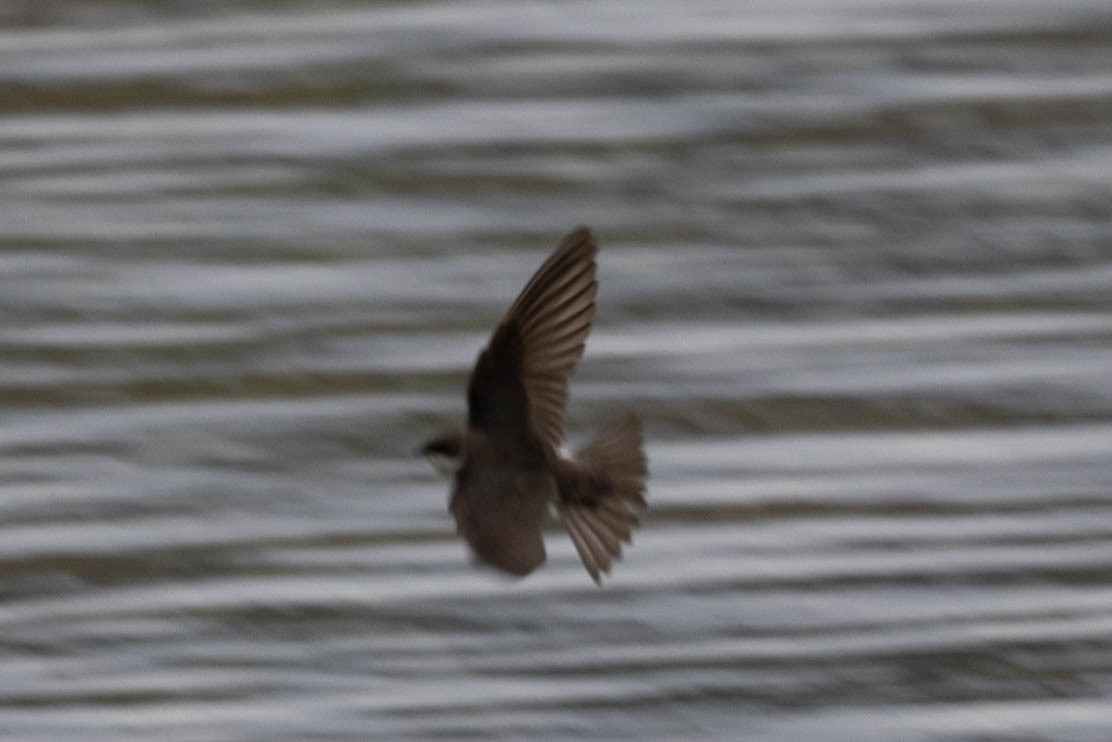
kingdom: Animalia
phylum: Chordata
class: Aves
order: Passeriformes
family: Hirundinidae
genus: Riparia
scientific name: Riparia riparia
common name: Sand martin
